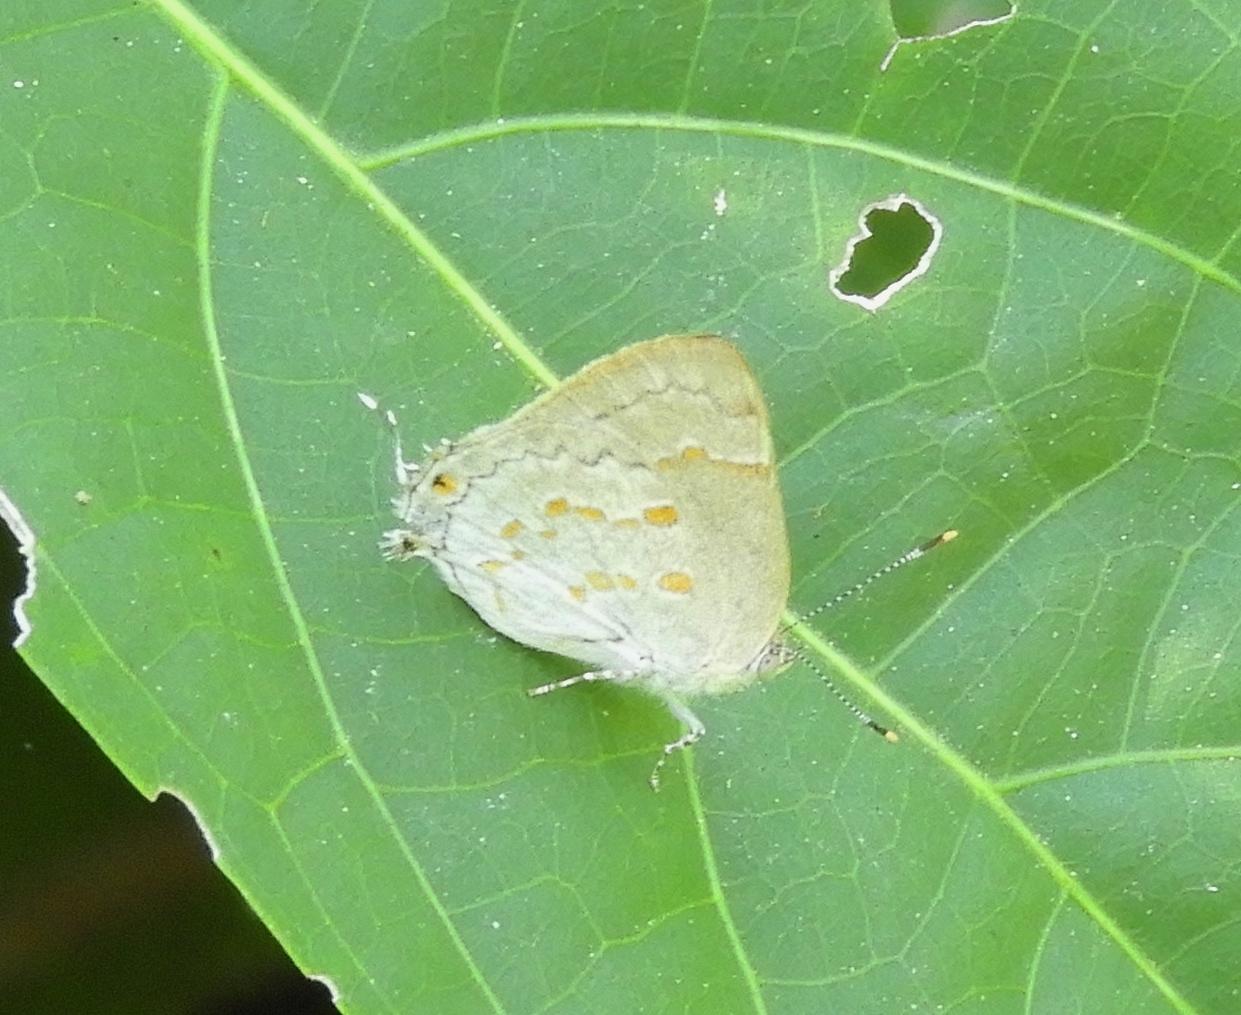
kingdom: Animalia
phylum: Arthropoda
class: Insecta
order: Lepidoptera
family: Lycaenidae
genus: Tmolus
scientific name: Tmolus echion
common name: Red-spotted hairstreak
